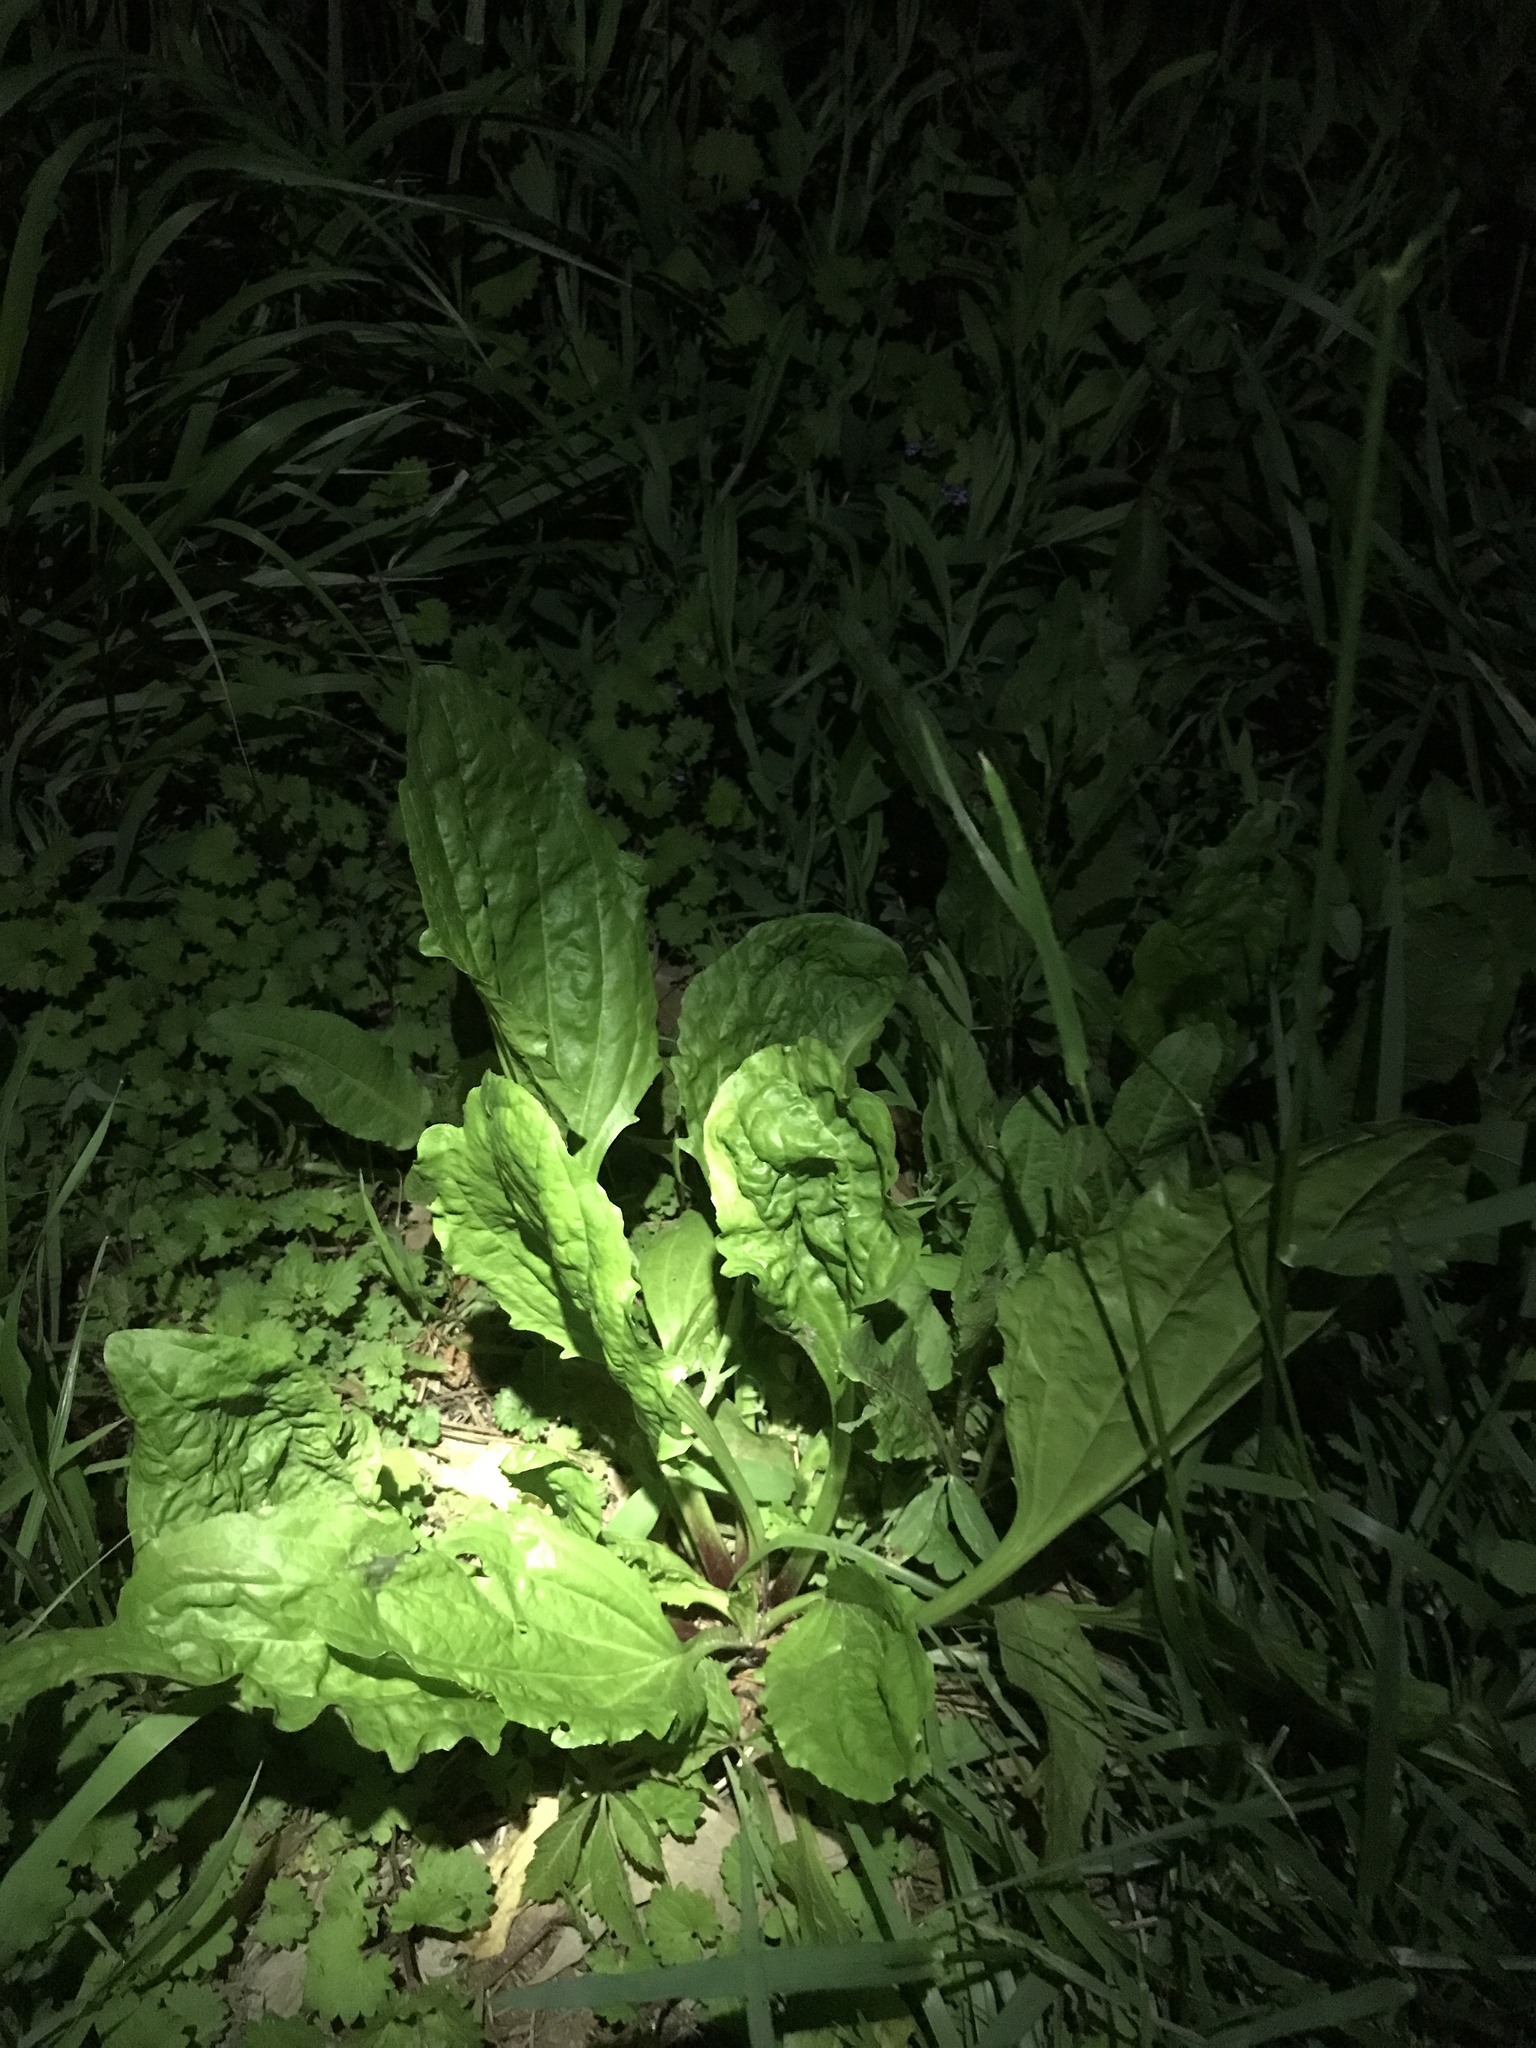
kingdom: Plantae
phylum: Tracheophyta
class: Magnoliopsida
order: Lamiales
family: Plantaginaceae
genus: Plantago
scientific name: Plantago rugelii
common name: American plantain
